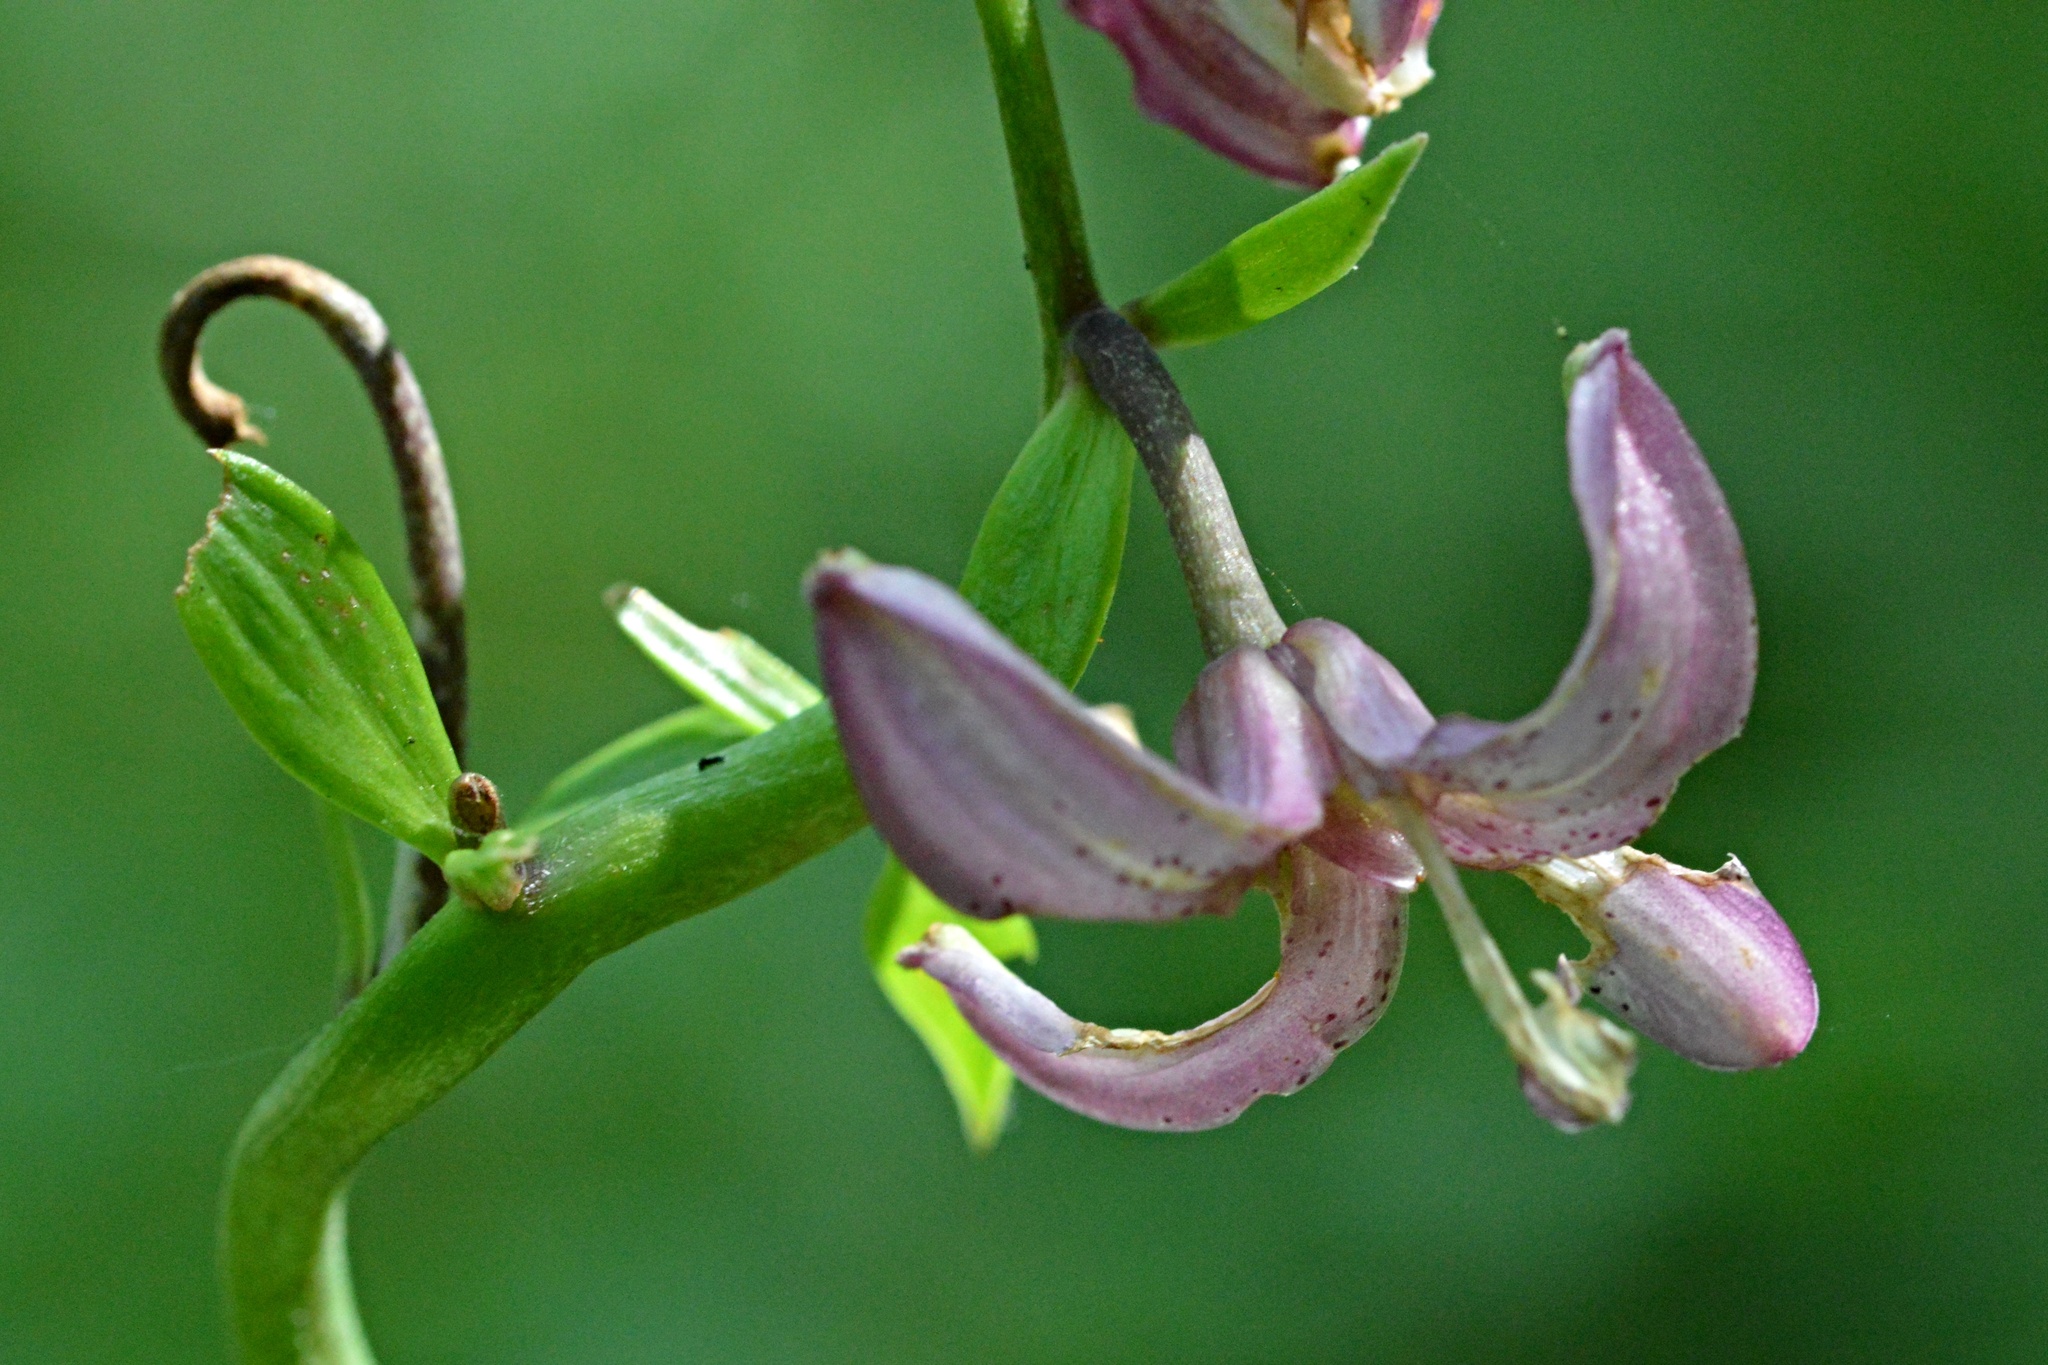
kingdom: Plantae
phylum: Tracheophyta
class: Liliopsida
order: Liliales
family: Liliaceae
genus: Lilium
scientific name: Lilium martagon
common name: Martagon lily
